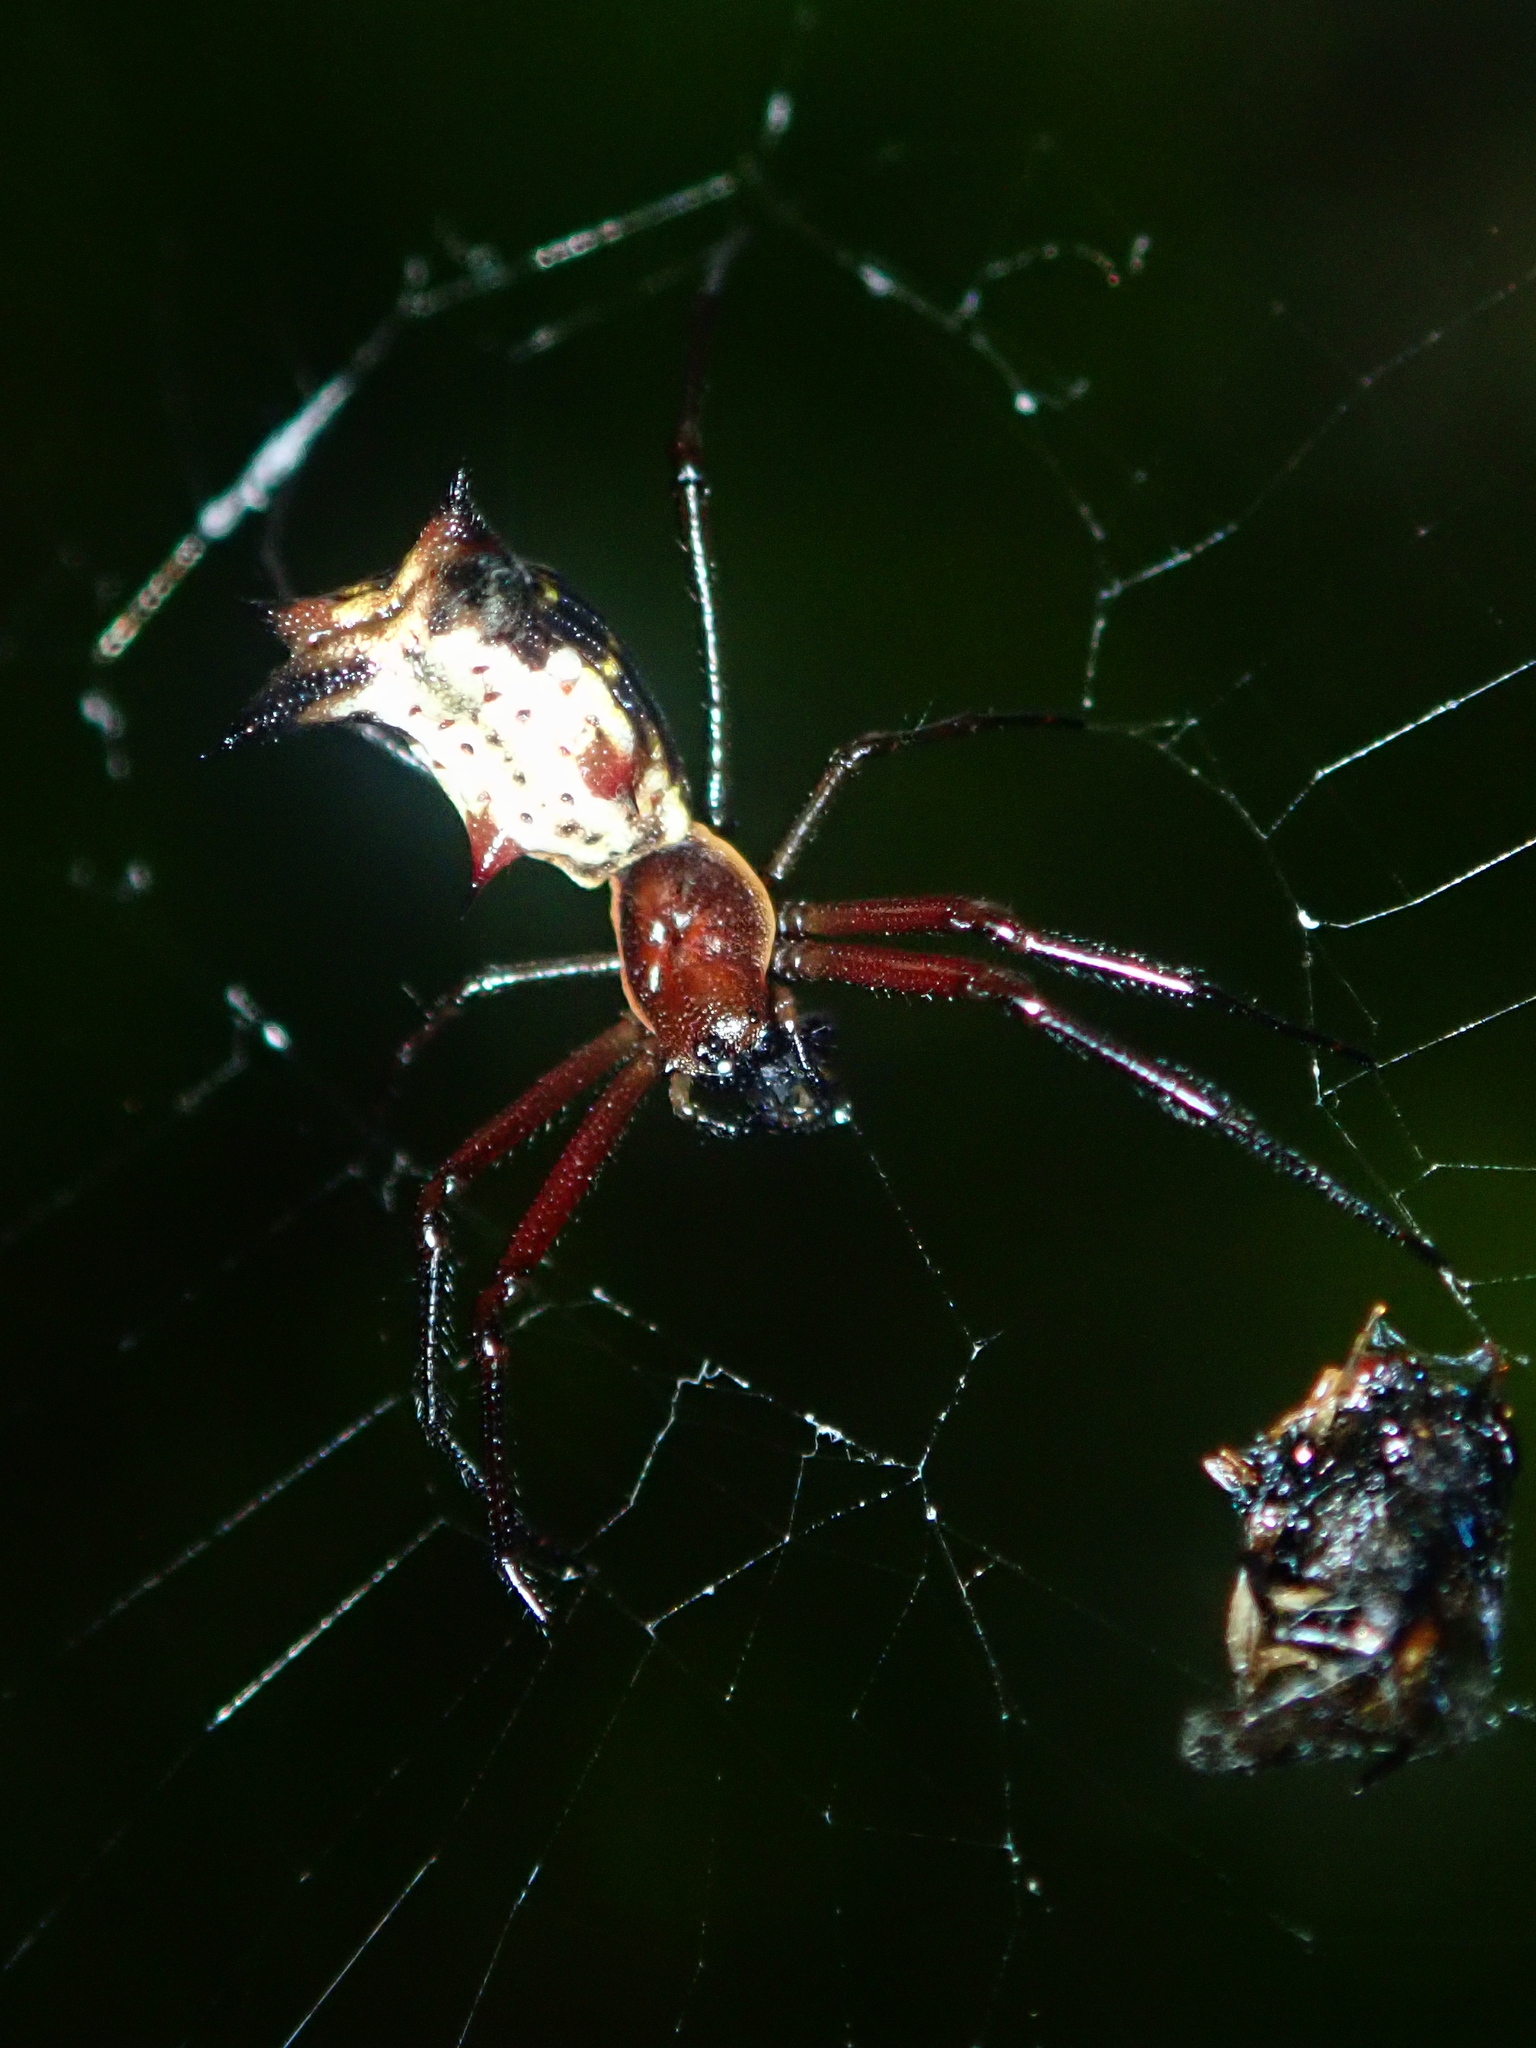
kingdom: Animalia
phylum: Arthropoda
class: Arachnida
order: Araneae
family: Araneidae
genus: Micrathena
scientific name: Micrathena nigrichelis
